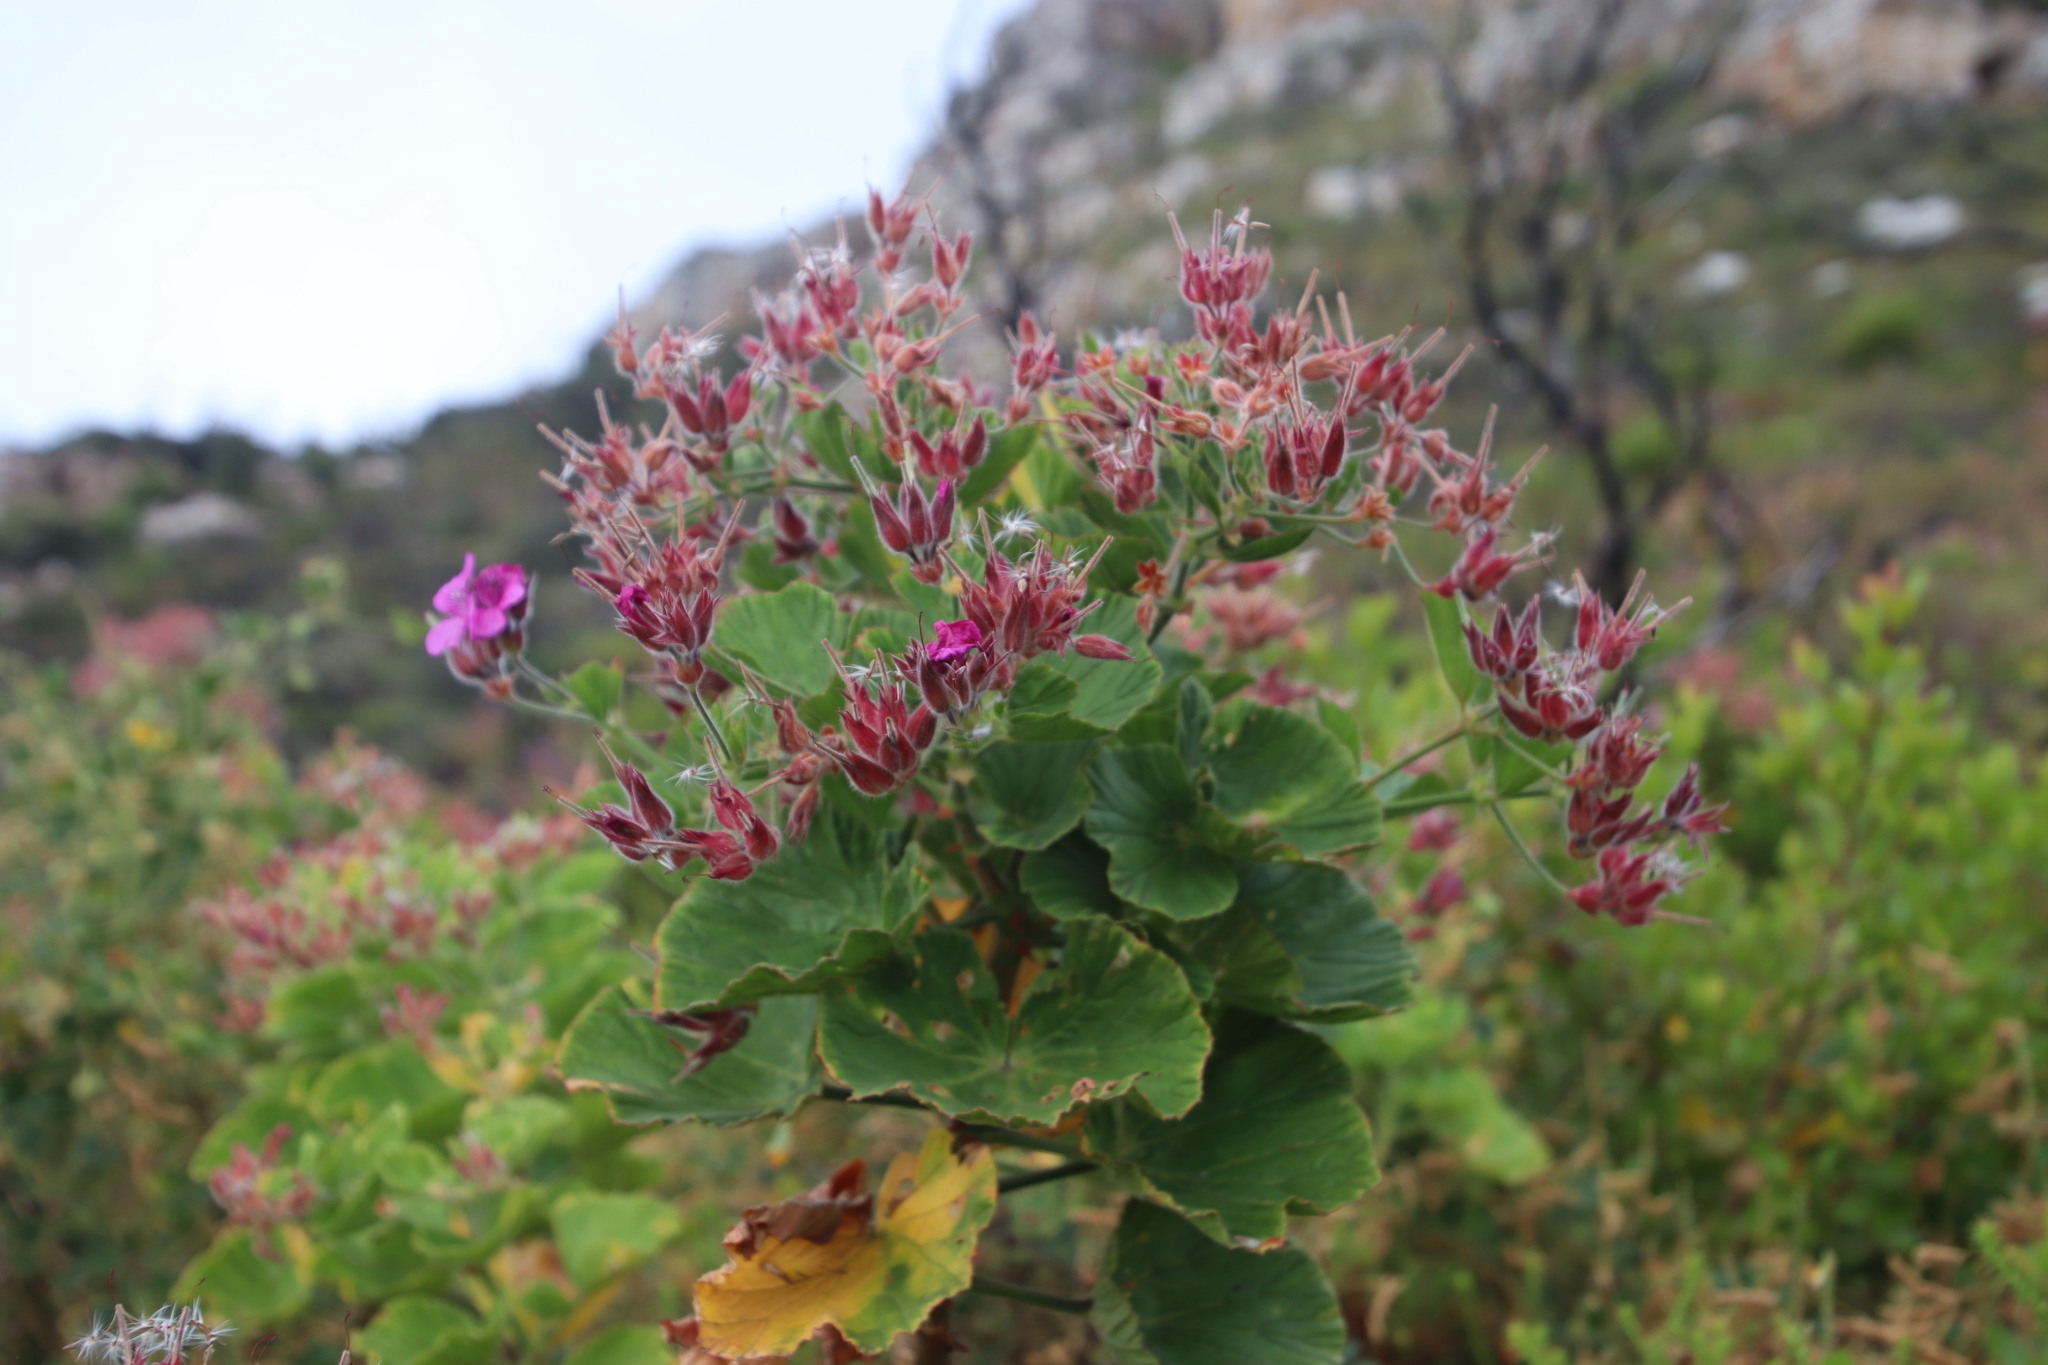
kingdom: Plantae
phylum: Tracheophyta
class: Magnoliopsida
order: Geraniales
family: Geraniaceae
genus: Pelargonium
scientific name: Pelargonium cucullatum
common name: Tree pelargonium
